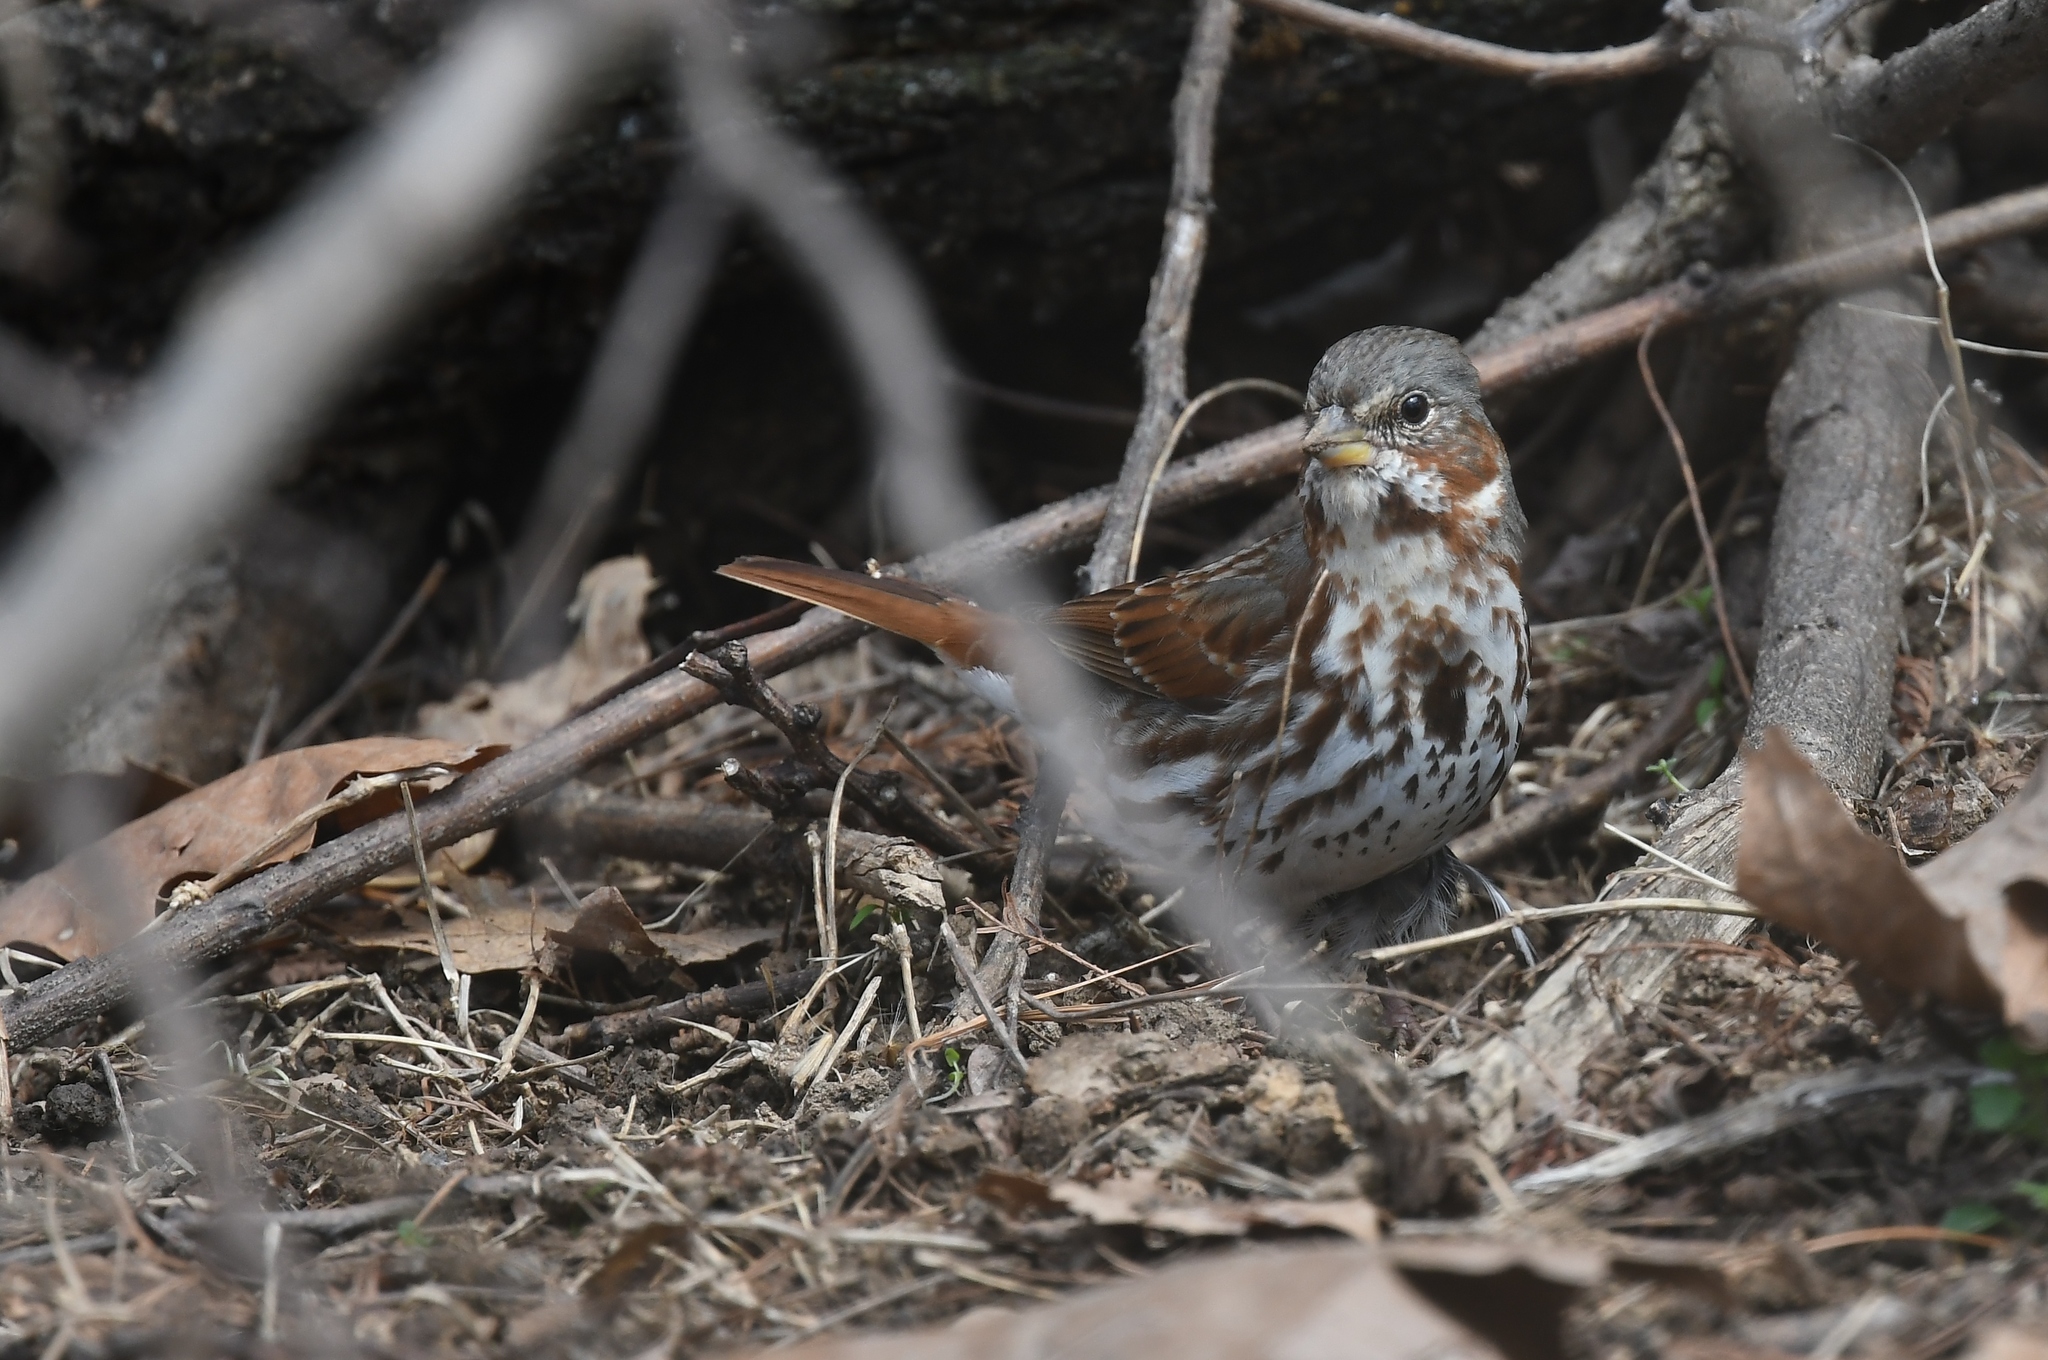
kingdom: Animalia
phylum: Chordata
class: Aves
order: Passeriformes
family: Passerellidae
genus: Passerella
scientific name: Passerella iliaca
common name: Fox sparrow
